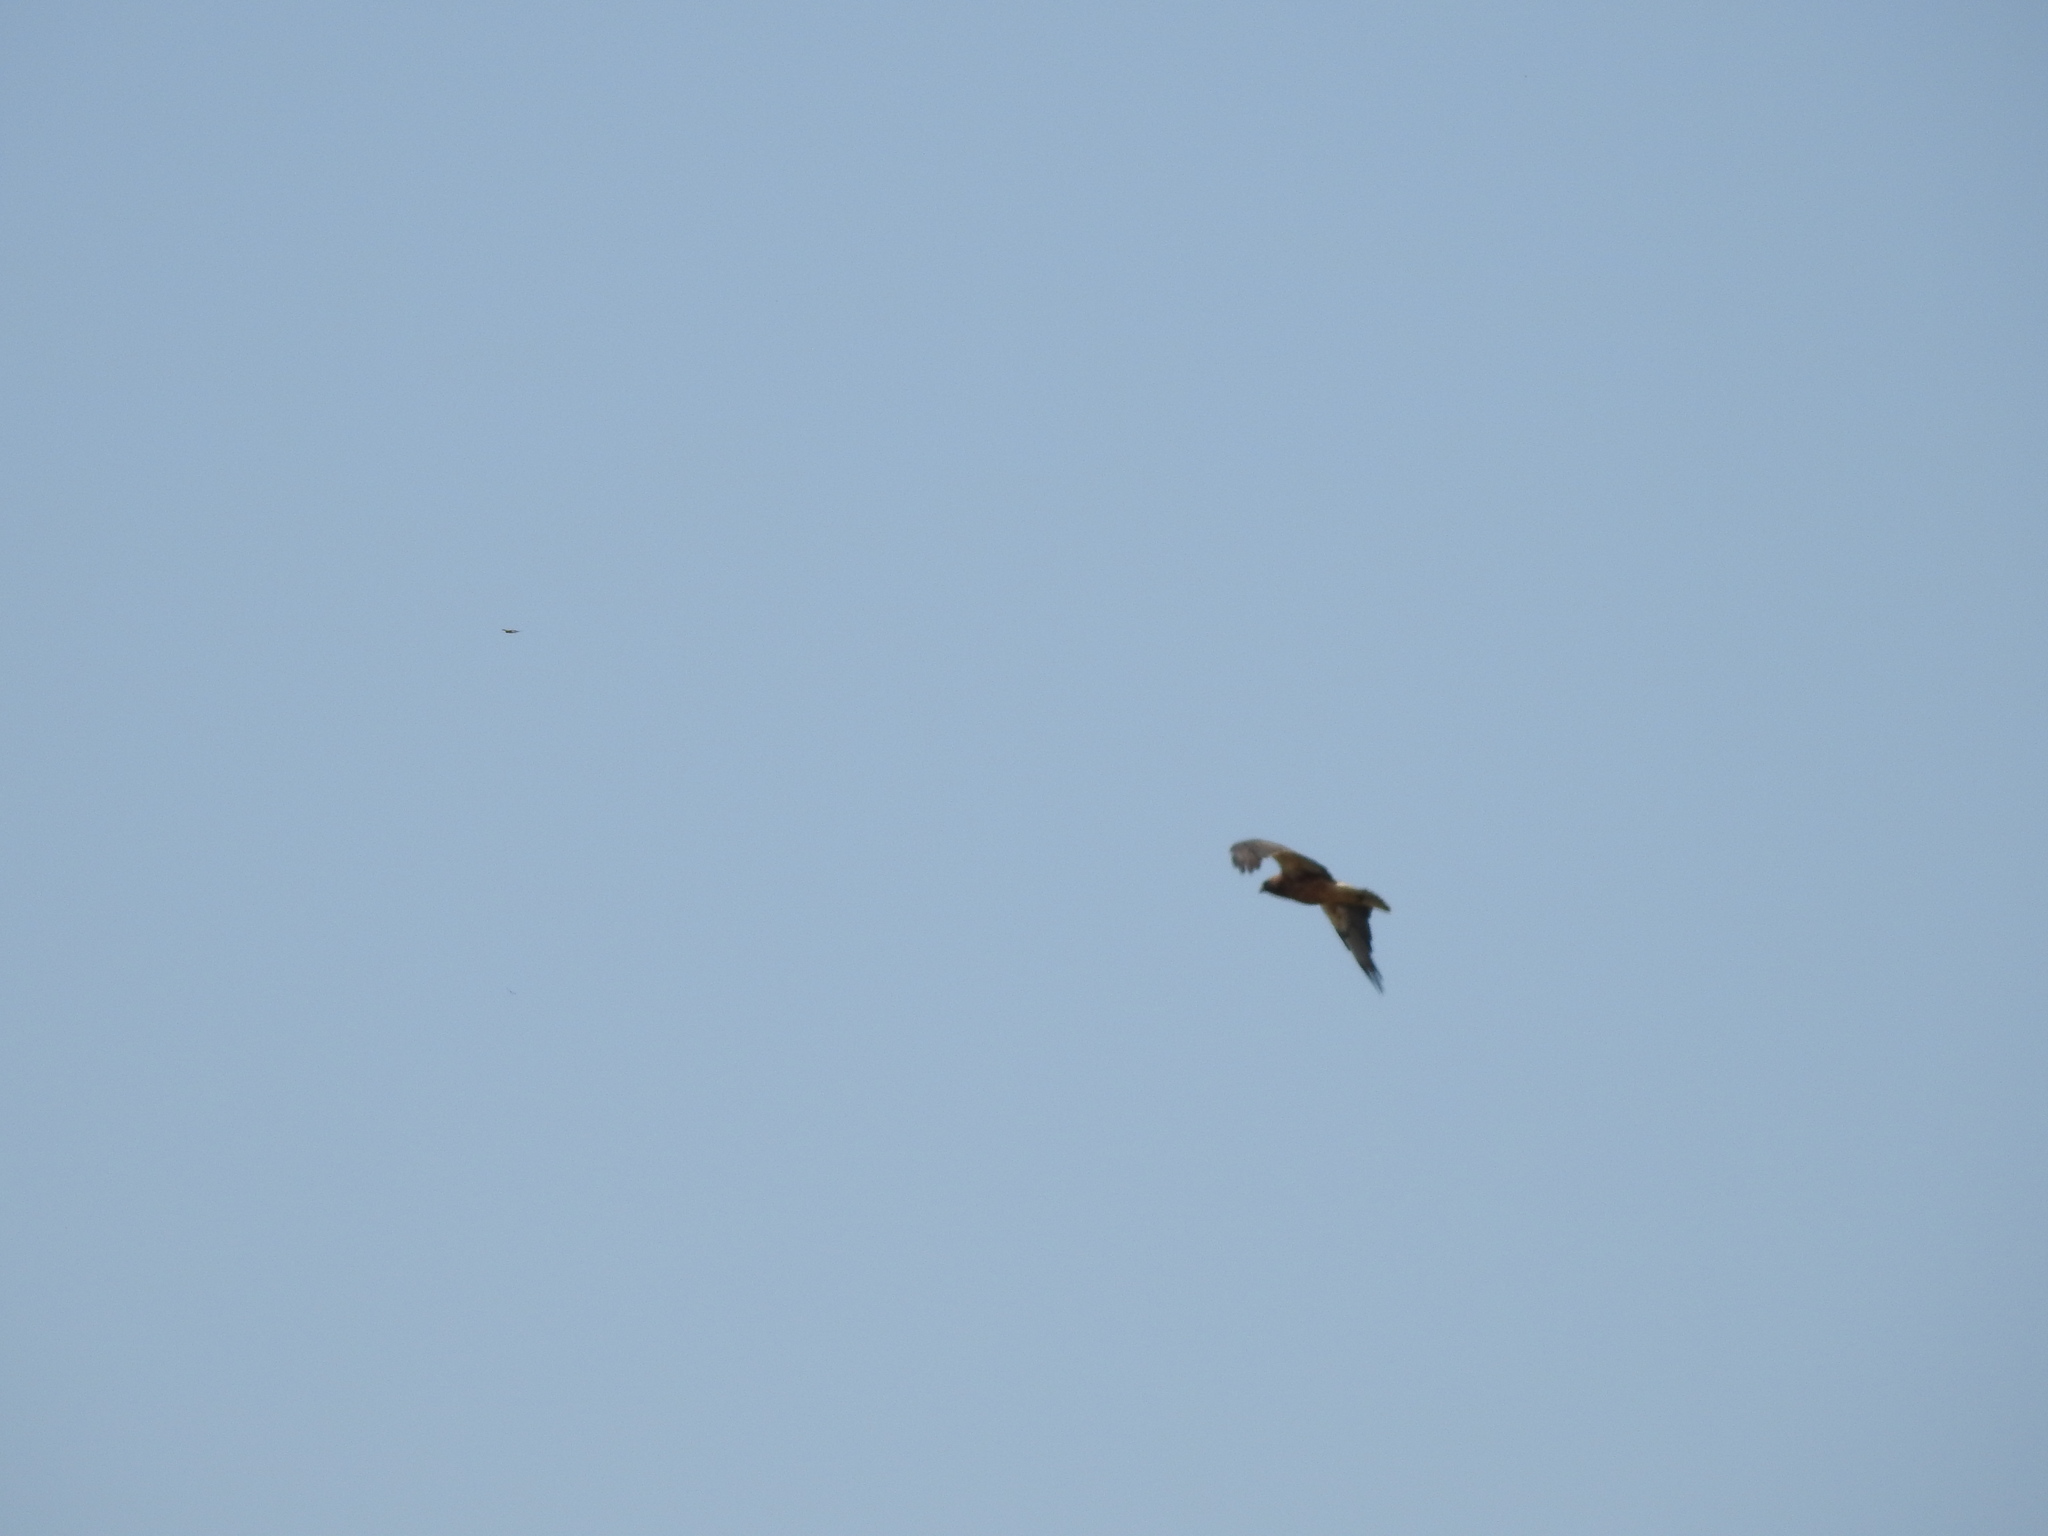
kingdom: Animalia
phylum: Chordata
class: Aves
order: Accipitriformes
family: Accipitridae
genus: Buteo
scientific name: Buteo swainsoni
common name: Swainson's hawk
